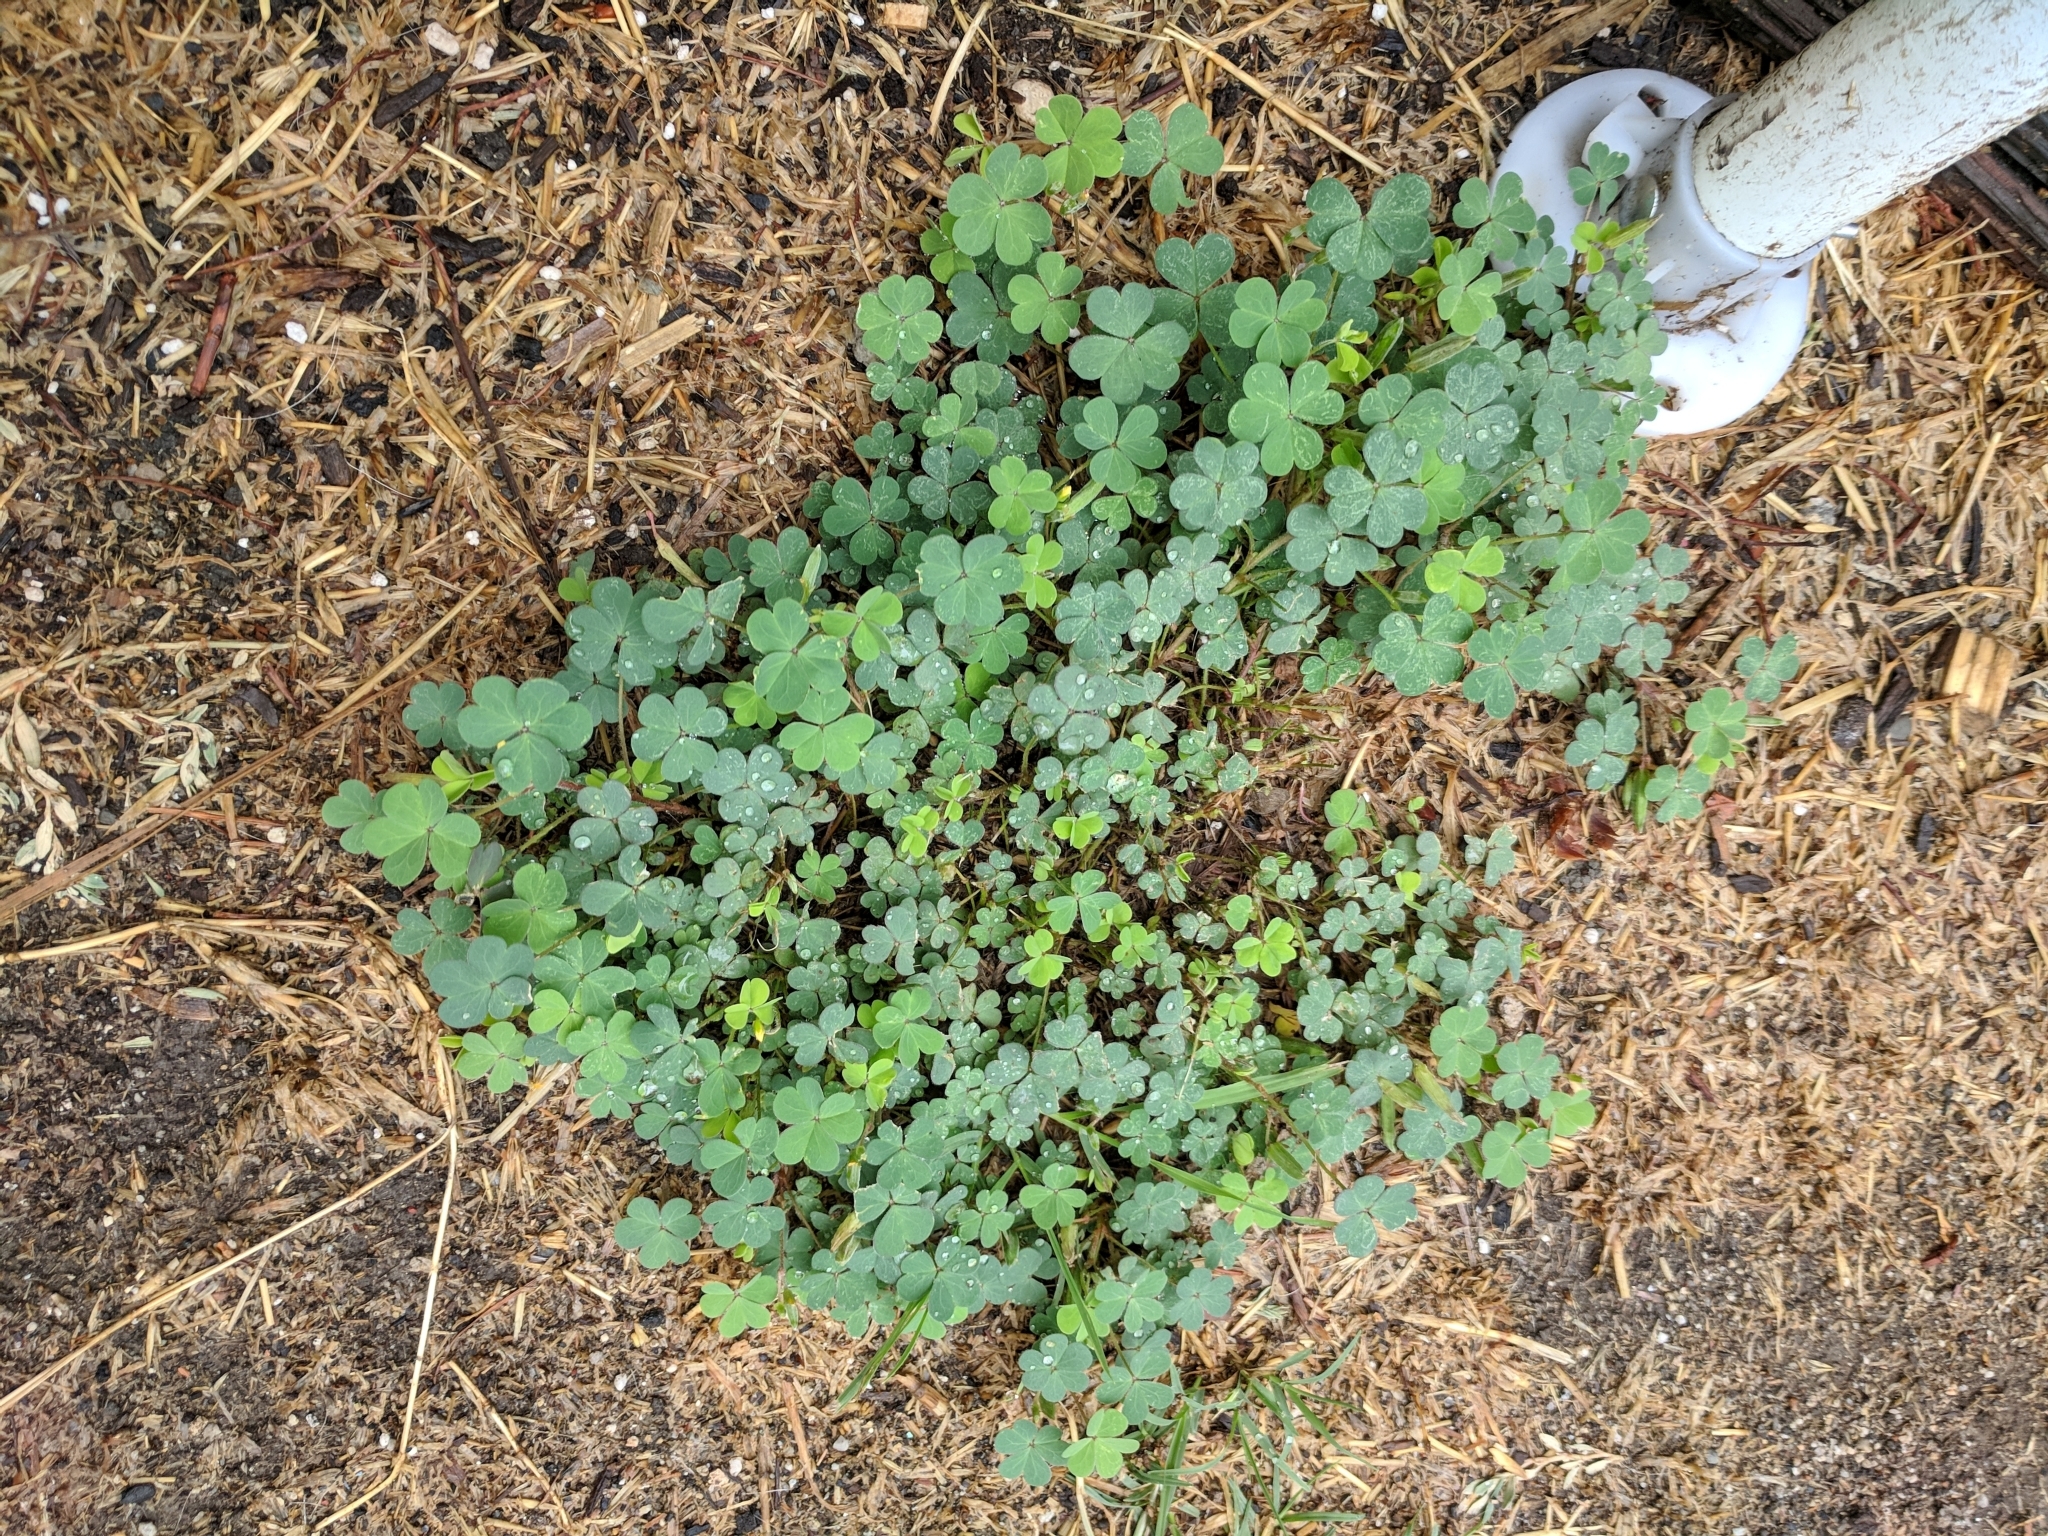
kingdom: Plantae
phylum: Tracheophyta
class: Magnoliopsida
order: Oxalidales
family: Oxalidaceae
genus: Oxalis
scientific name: Oxalis corniculata
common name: Procumbent yellow-sorrel
